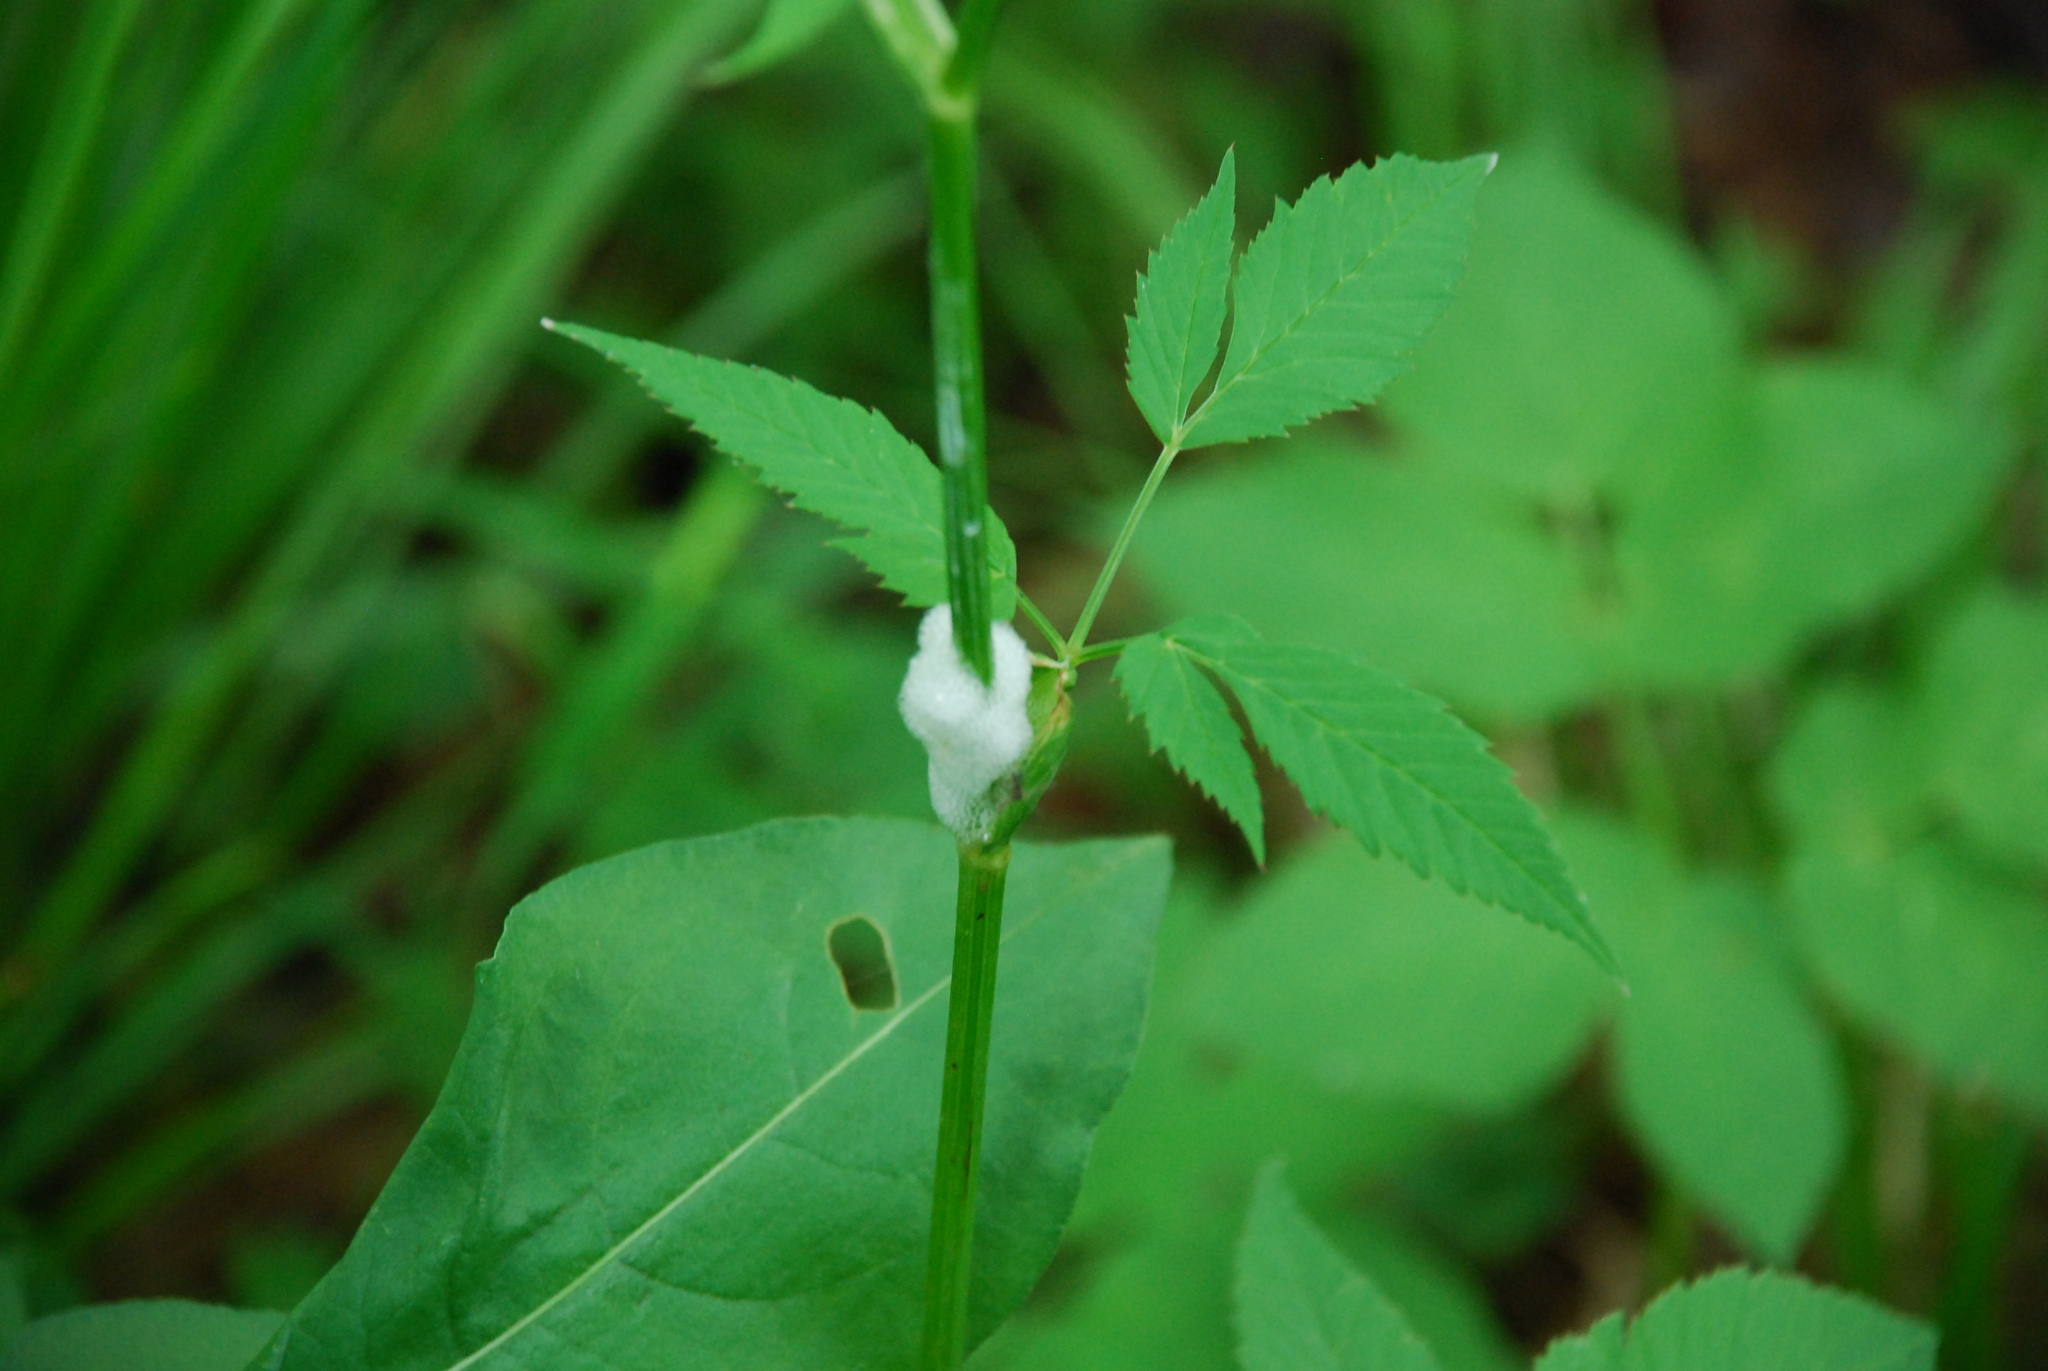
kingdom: Plantae
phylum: Tracheophyta
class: Magnoliopsida
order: Apiales
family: Apiaceae
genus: Aegopodium
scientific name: Aegopodium podagraria
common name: Ground-elder
